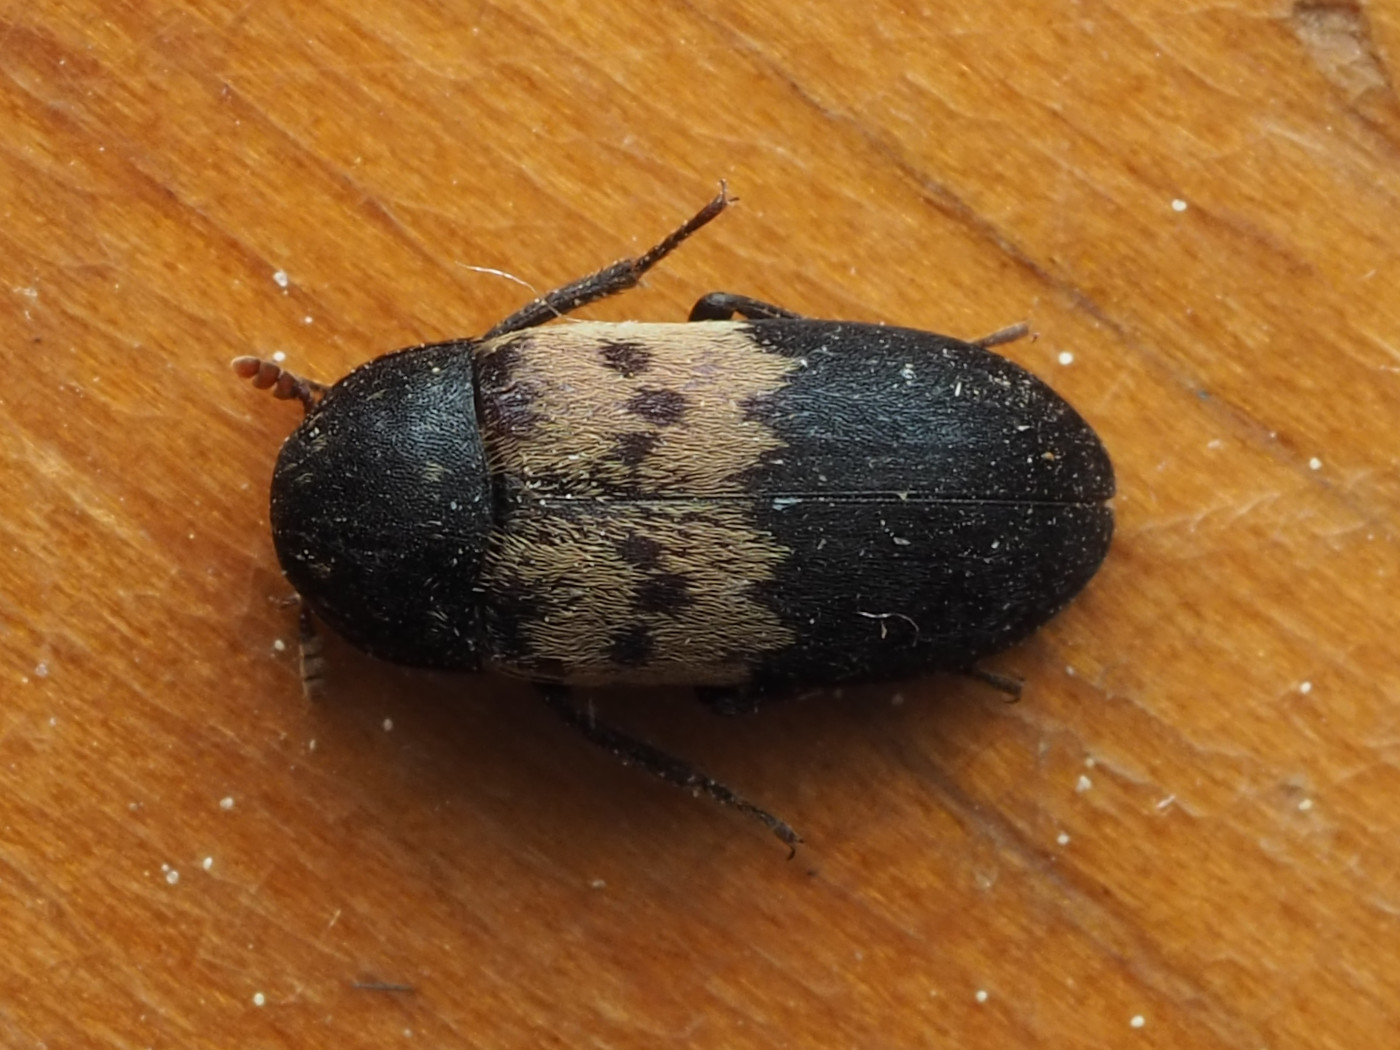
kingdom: Animalia
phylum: Arthropoda
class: Insecta
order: Coleoptera
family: Dermestidae
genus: Dermestes
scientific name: Dermestes lardarius
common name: Larder beetle
